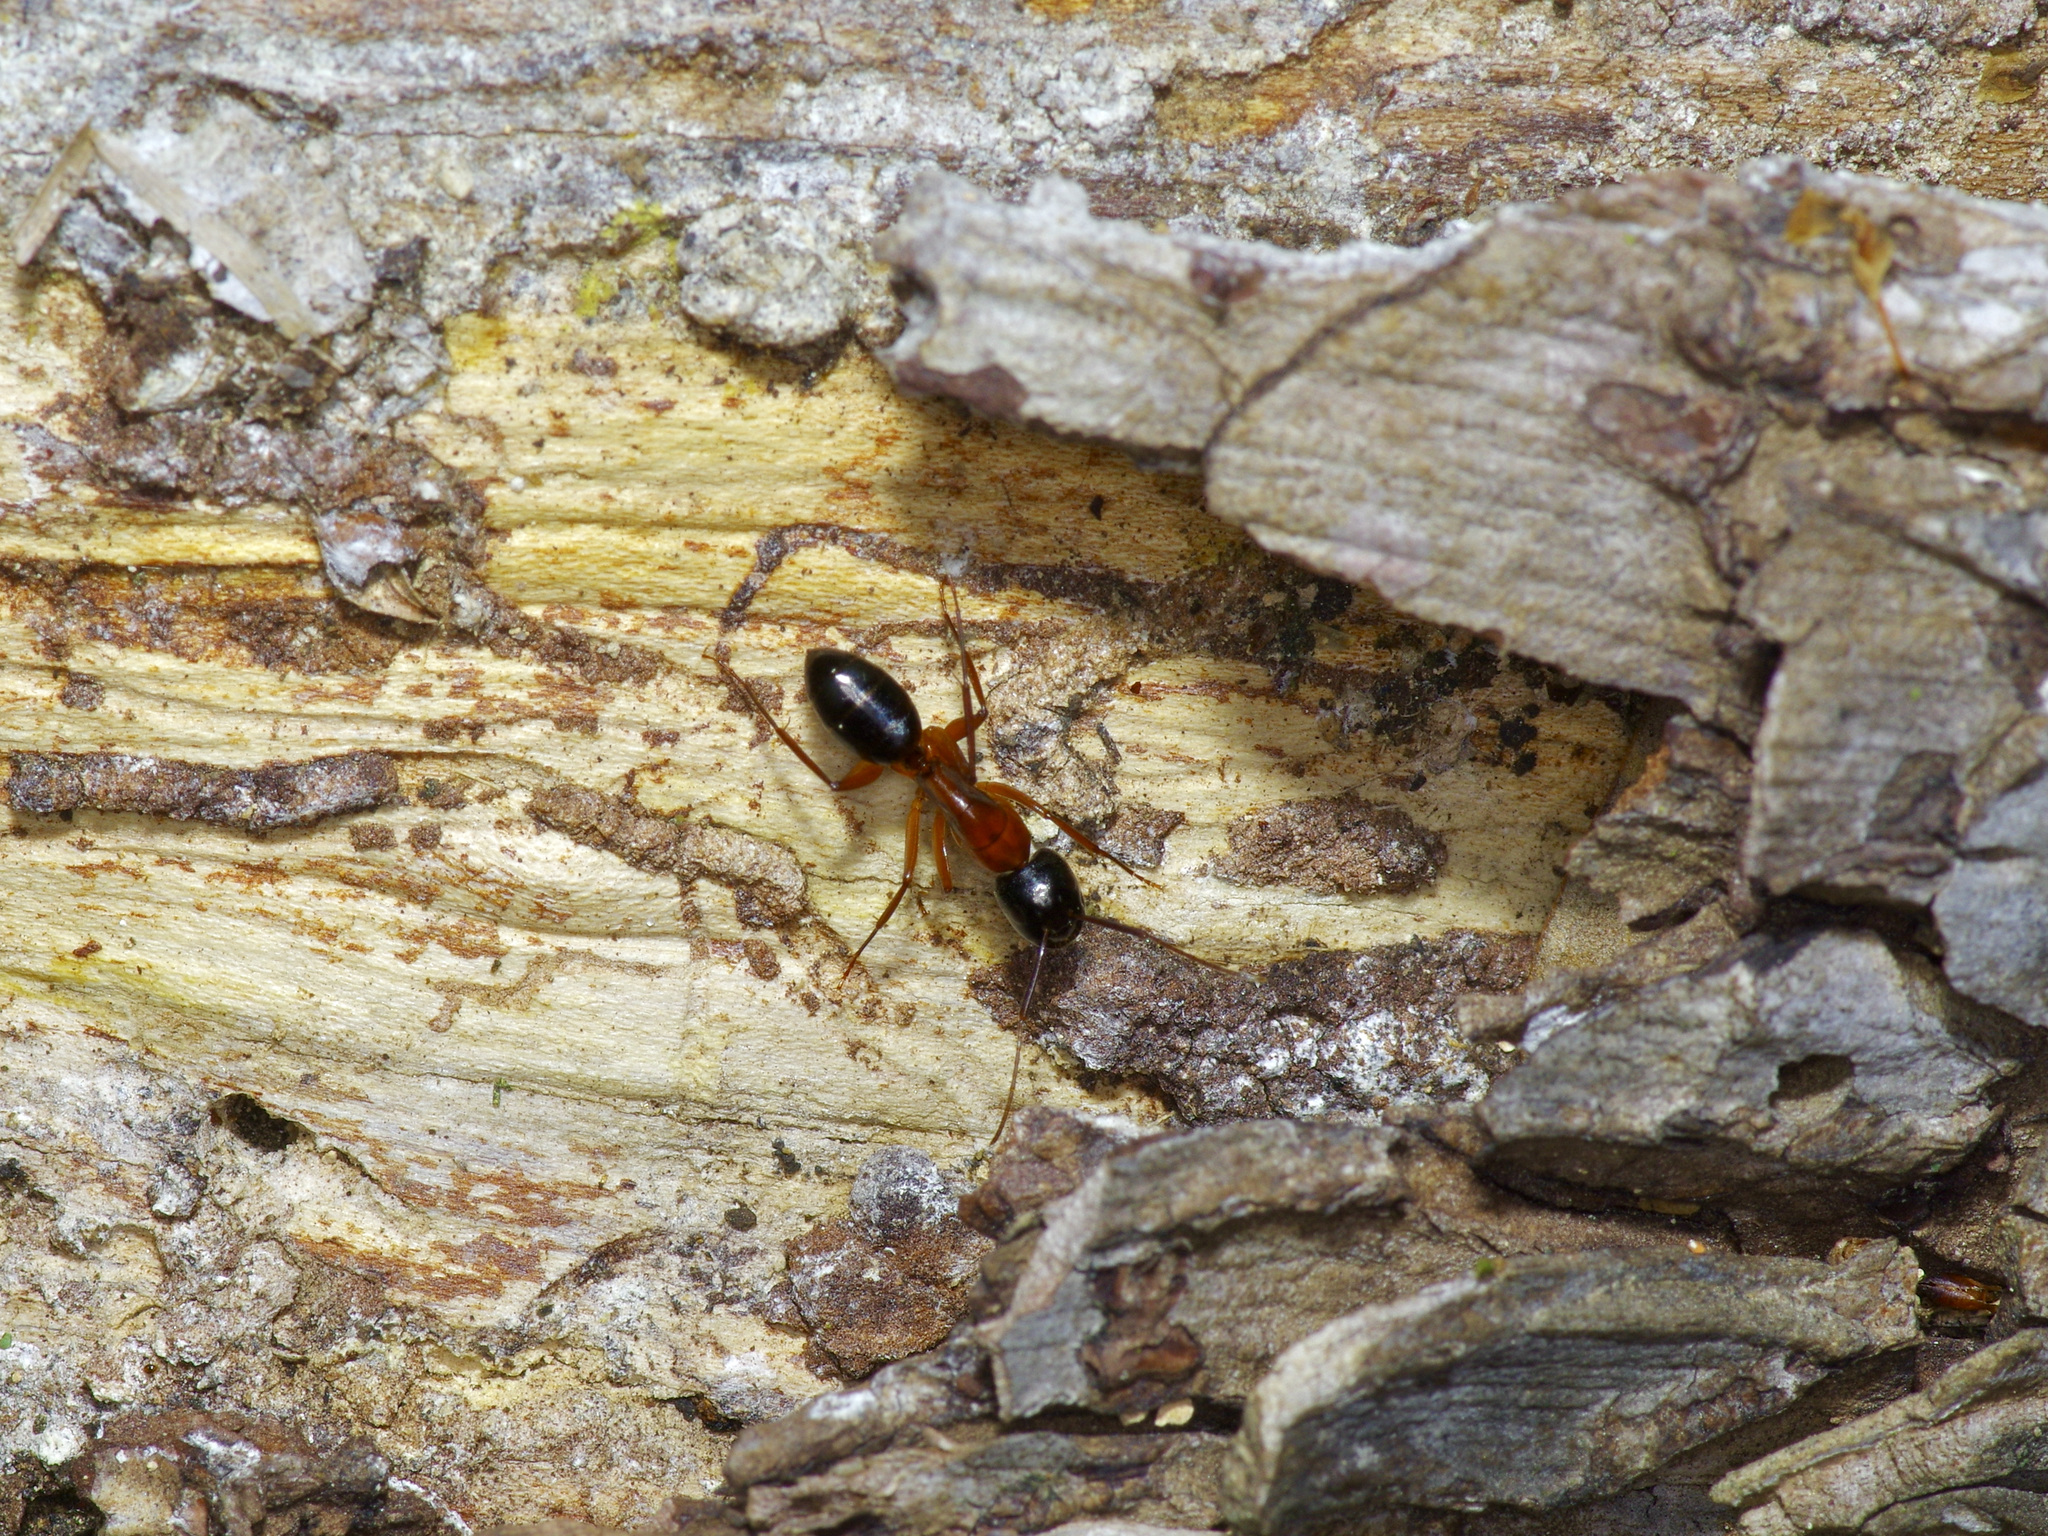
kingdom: Animalia
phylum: Arthropoda
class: Insecta
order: Hymenoptera
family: Formicidae
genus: Camponotus
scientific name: Camponotus texanus
